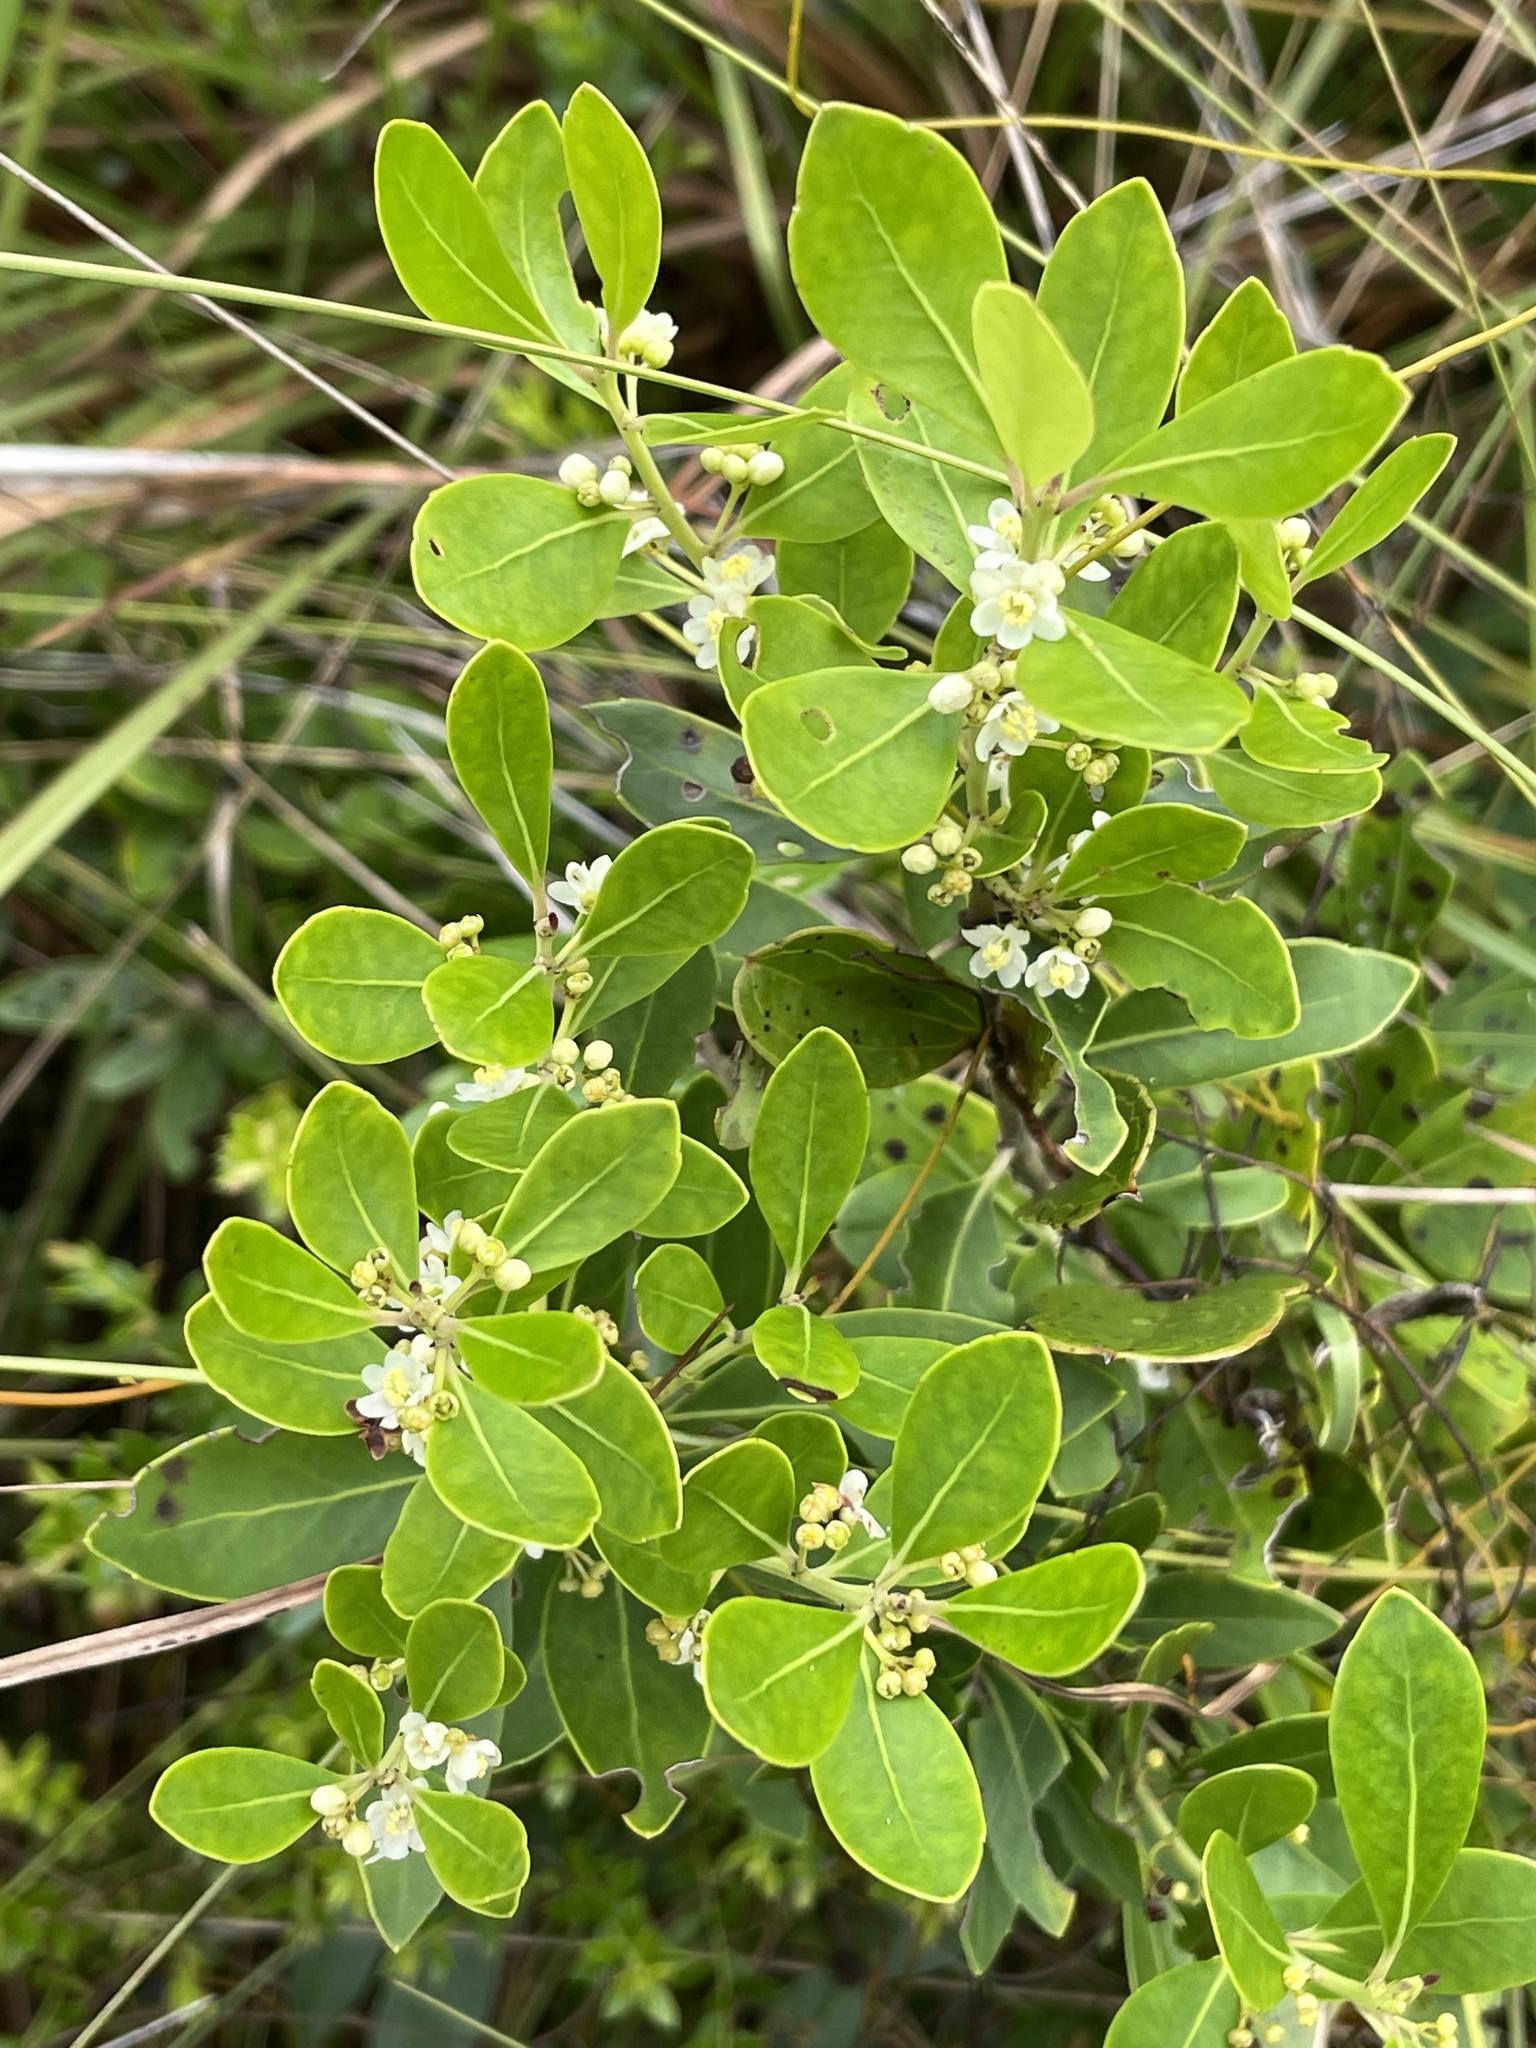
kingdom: Plantae
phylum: Tracheophyta
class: Magnoliopsida
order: Aquifoliales
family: Aquifoliaceae
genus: Ilex
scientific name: Ilex glabra
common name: Bitter gallberry
